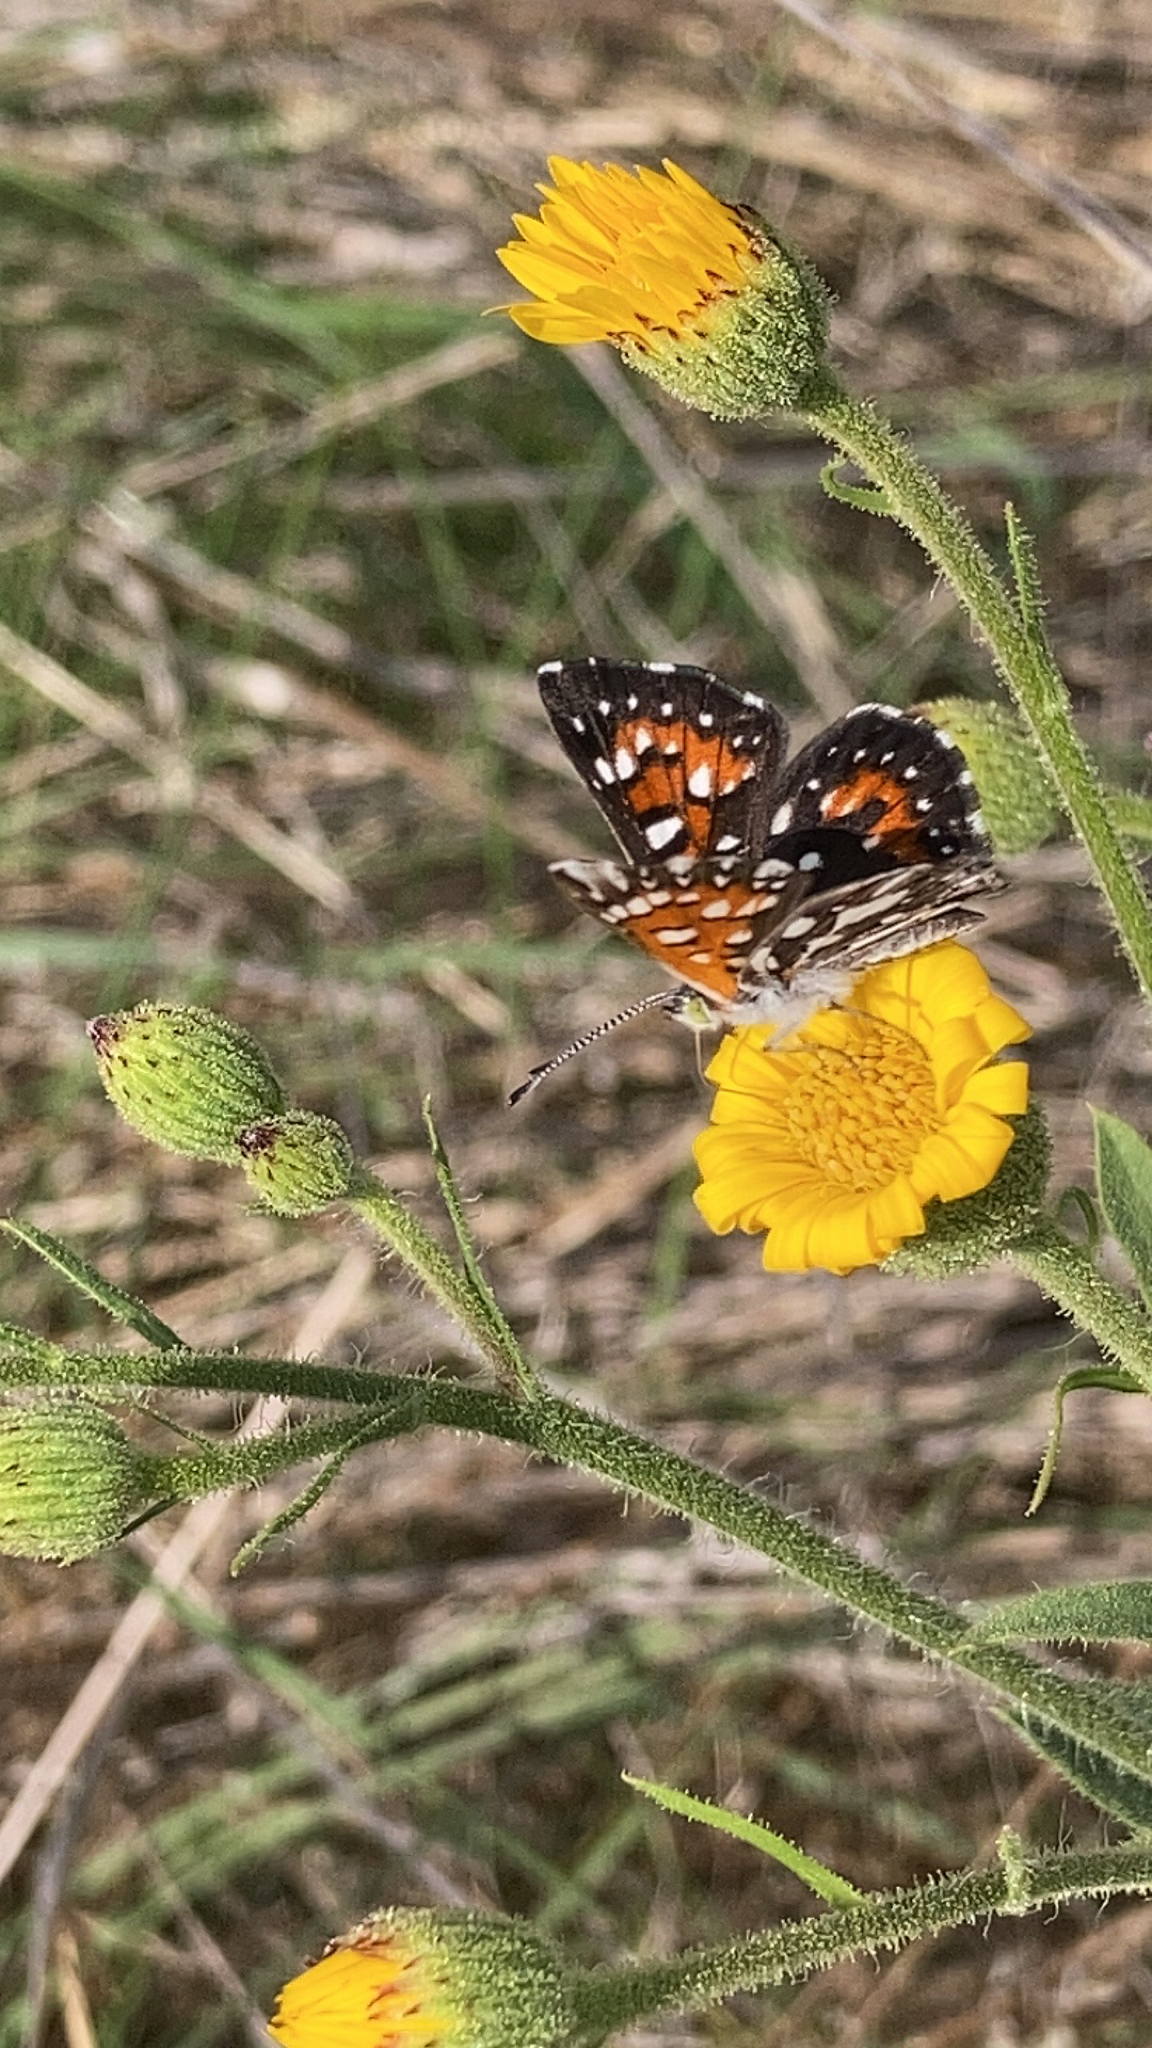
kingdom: Animalia
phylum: Arthropoda
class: Insecta
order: Lepidoptera
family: Riodinidae
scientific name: Riodinidae
